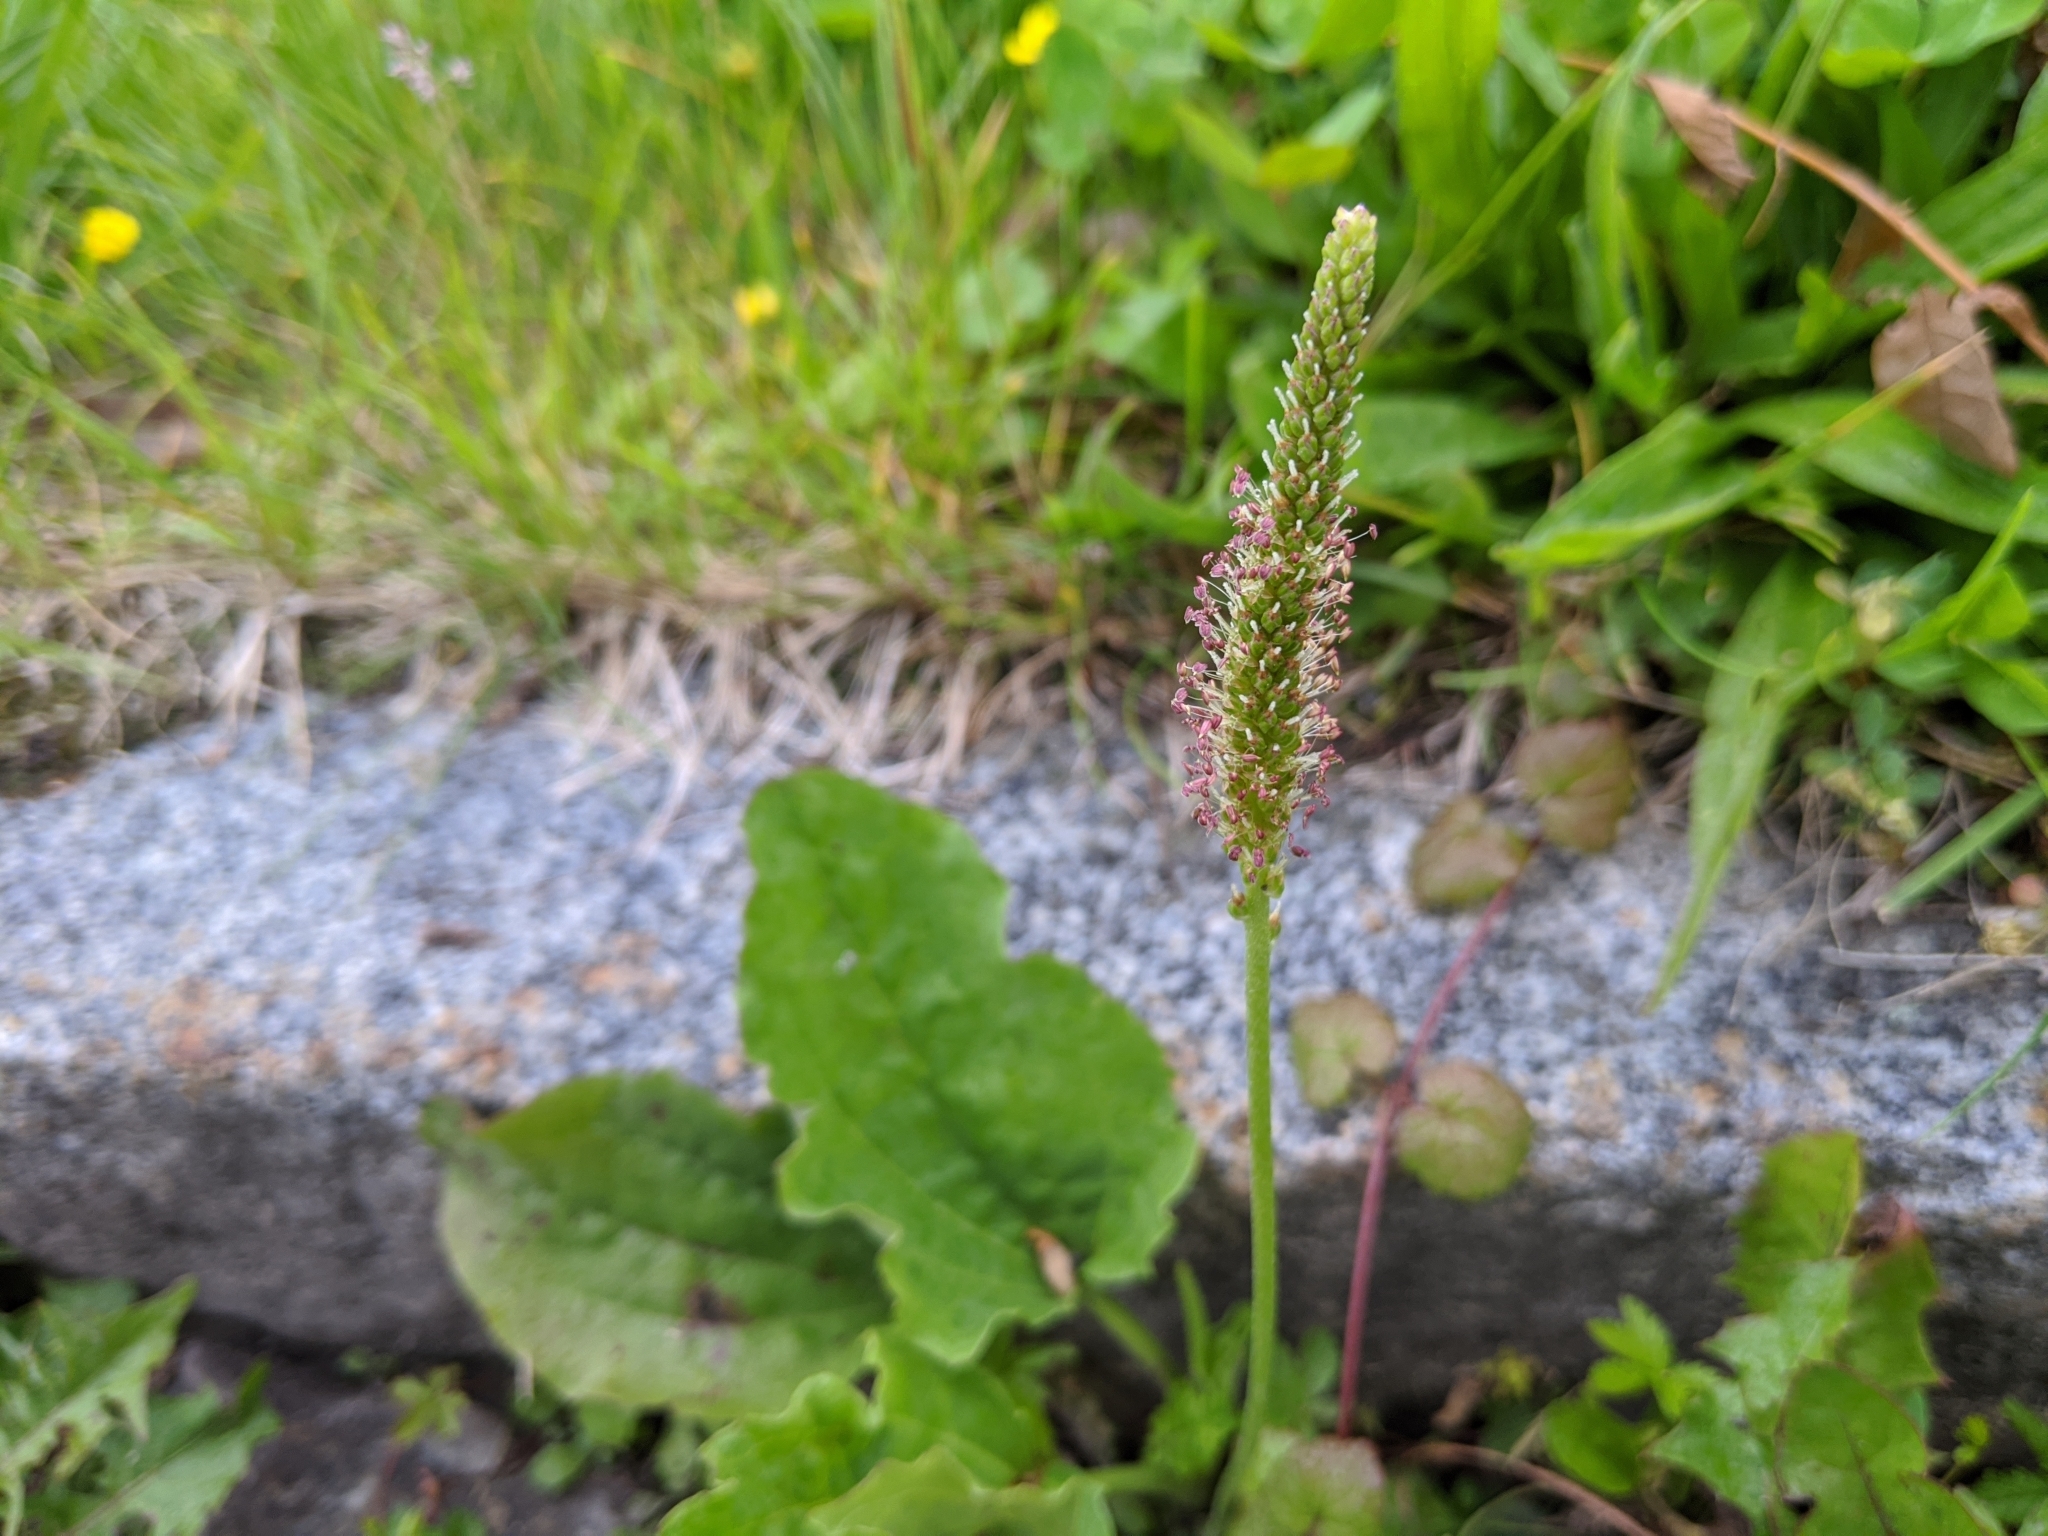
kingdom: Plantae
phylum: Tracheophyta
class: Magnoliopsida
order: Lamiales
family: Plantaginaceae
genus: Plantago
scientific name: Plantago major
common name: Common plantain
